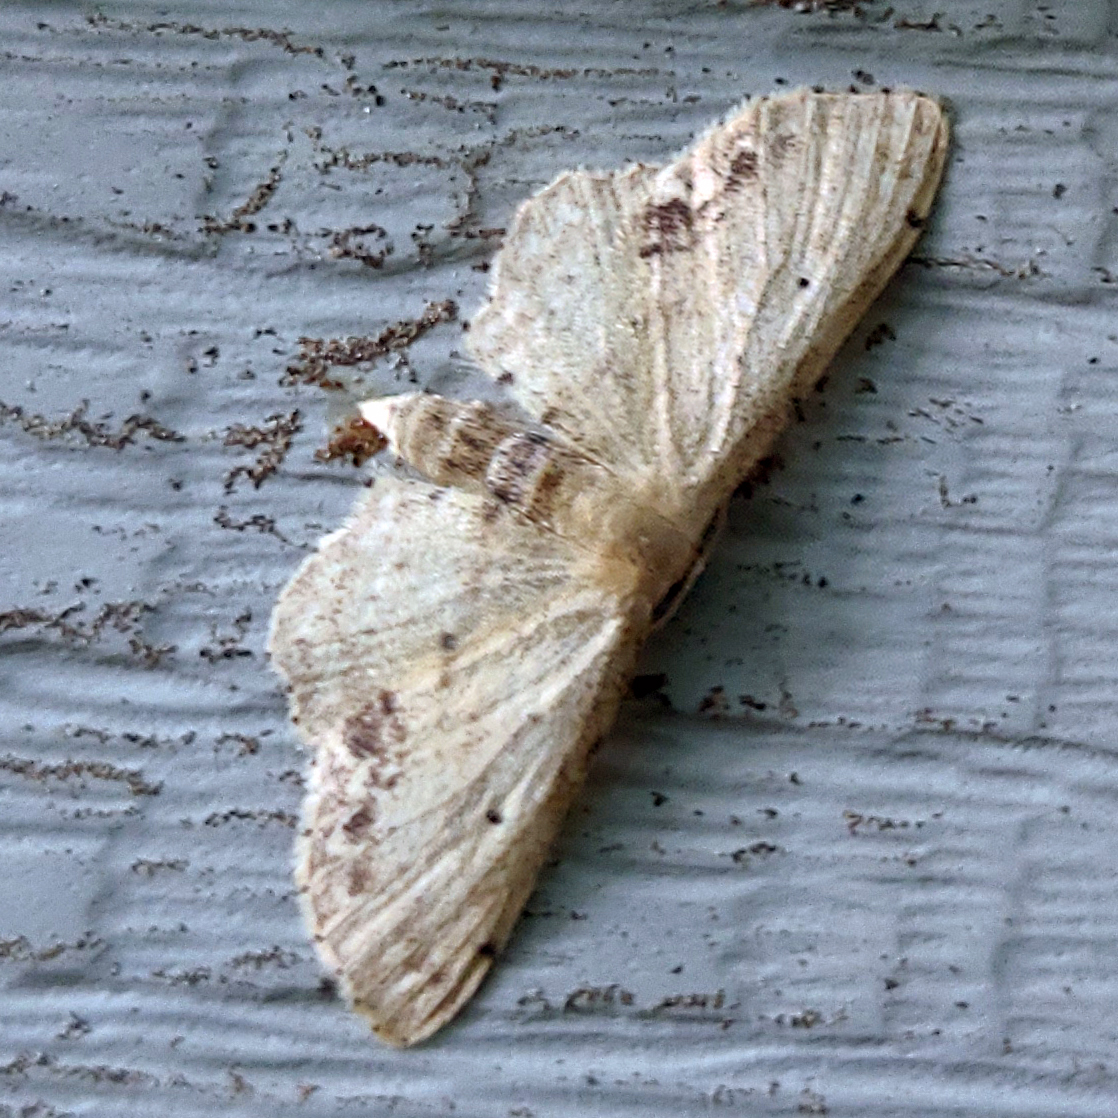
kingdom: Animalia
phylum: Arthropoda
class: Insecta
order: Lepidoptera
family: Geometridae
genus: Idaea
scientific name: Idaea dimidiata
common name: Single-dotted wave
